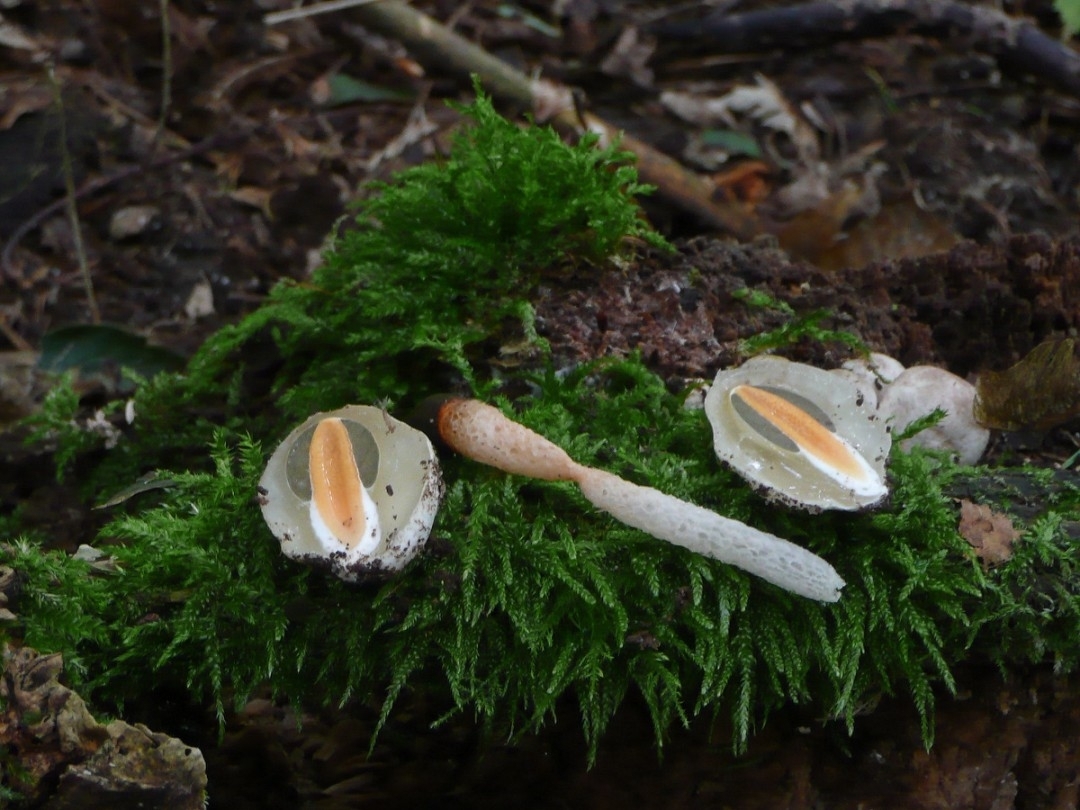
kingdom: Fungi
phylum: Basidiomycota
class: Agaricomycetes
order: Phallales
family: Phallaceae
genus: Mutinus
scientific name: Mutinus caninus
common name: Dog stinkhorn
